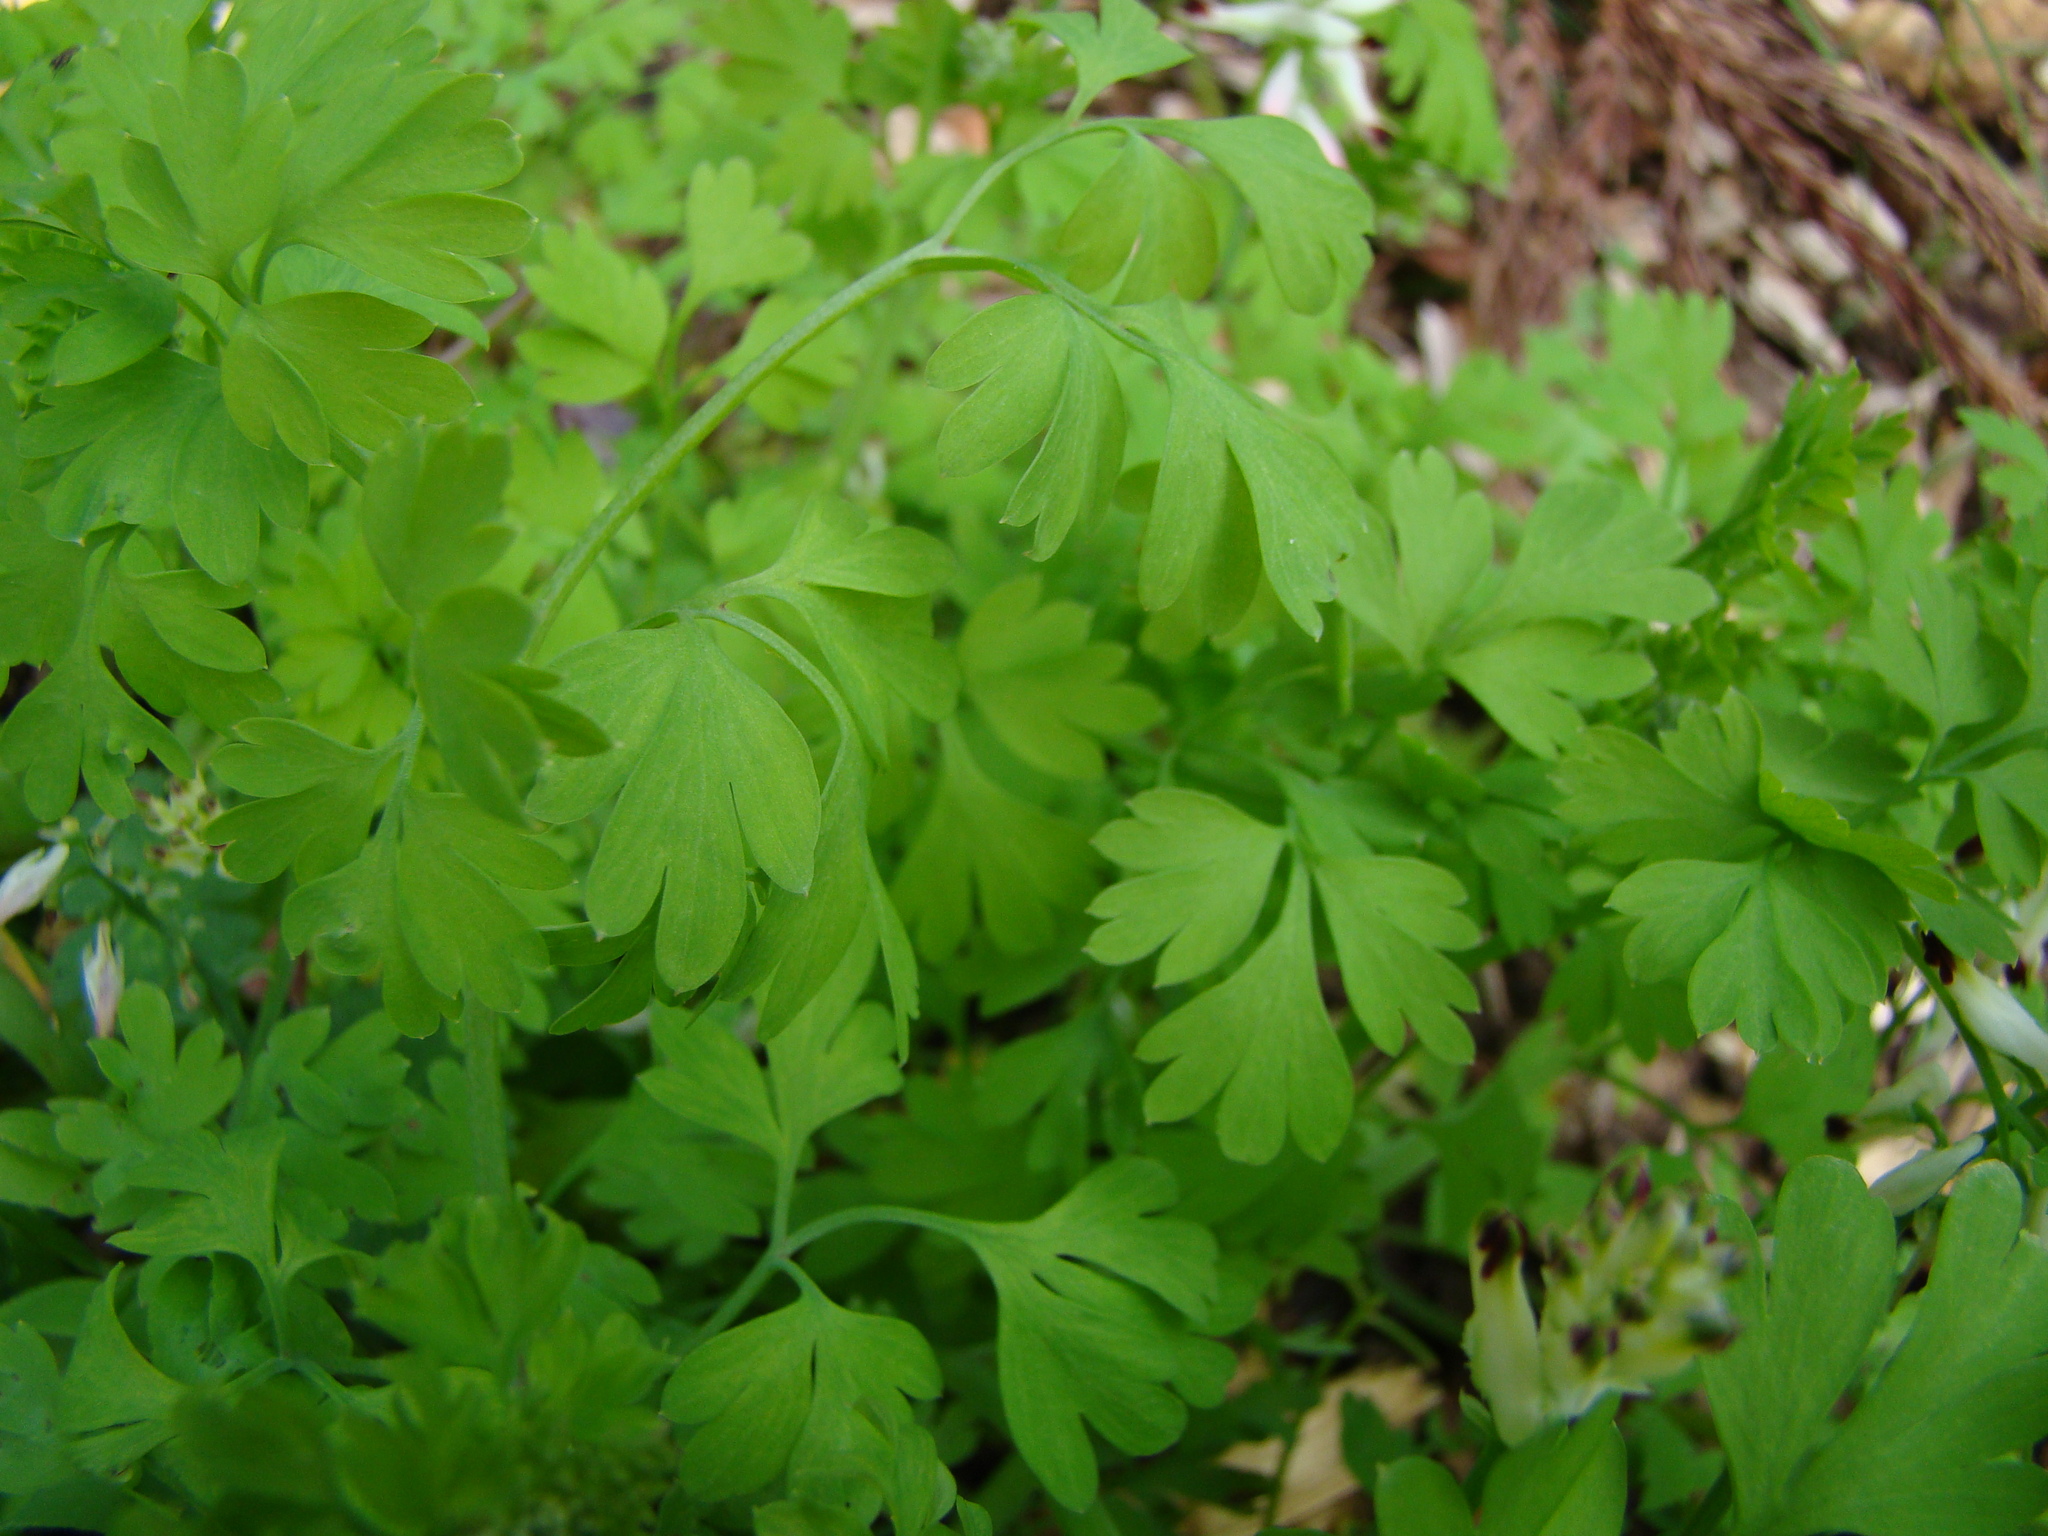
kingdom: Plantae
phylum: Tracheophyta
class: Magnoliopsida
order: Ranunculales
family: Papaveraceae
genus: Fumaria
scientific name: Fumaria capreolata
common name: White ramping-fumitory
